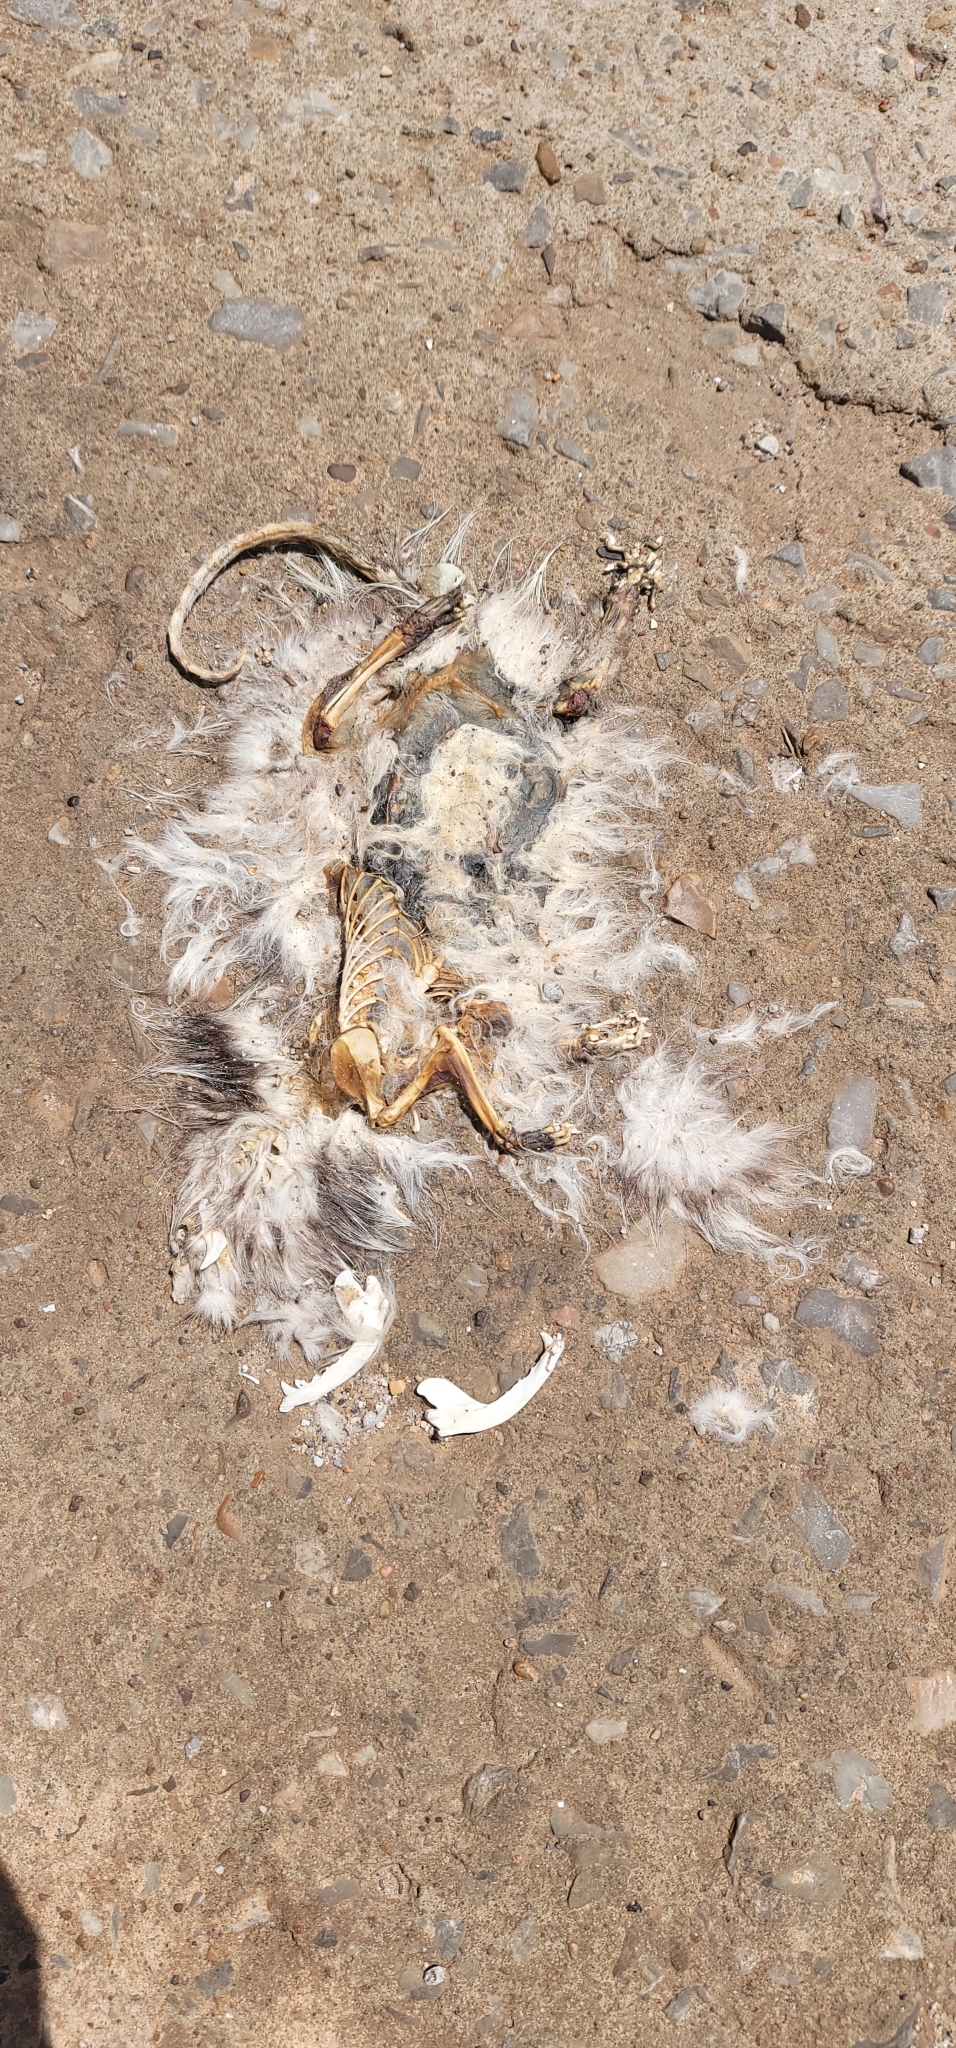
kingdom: Animalia
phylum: Chordata
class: Mammalia
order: Didelphimorphia
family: Didelphidae
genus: Didelphis
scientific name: Didelphis virginiana
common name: Virginia opossum
